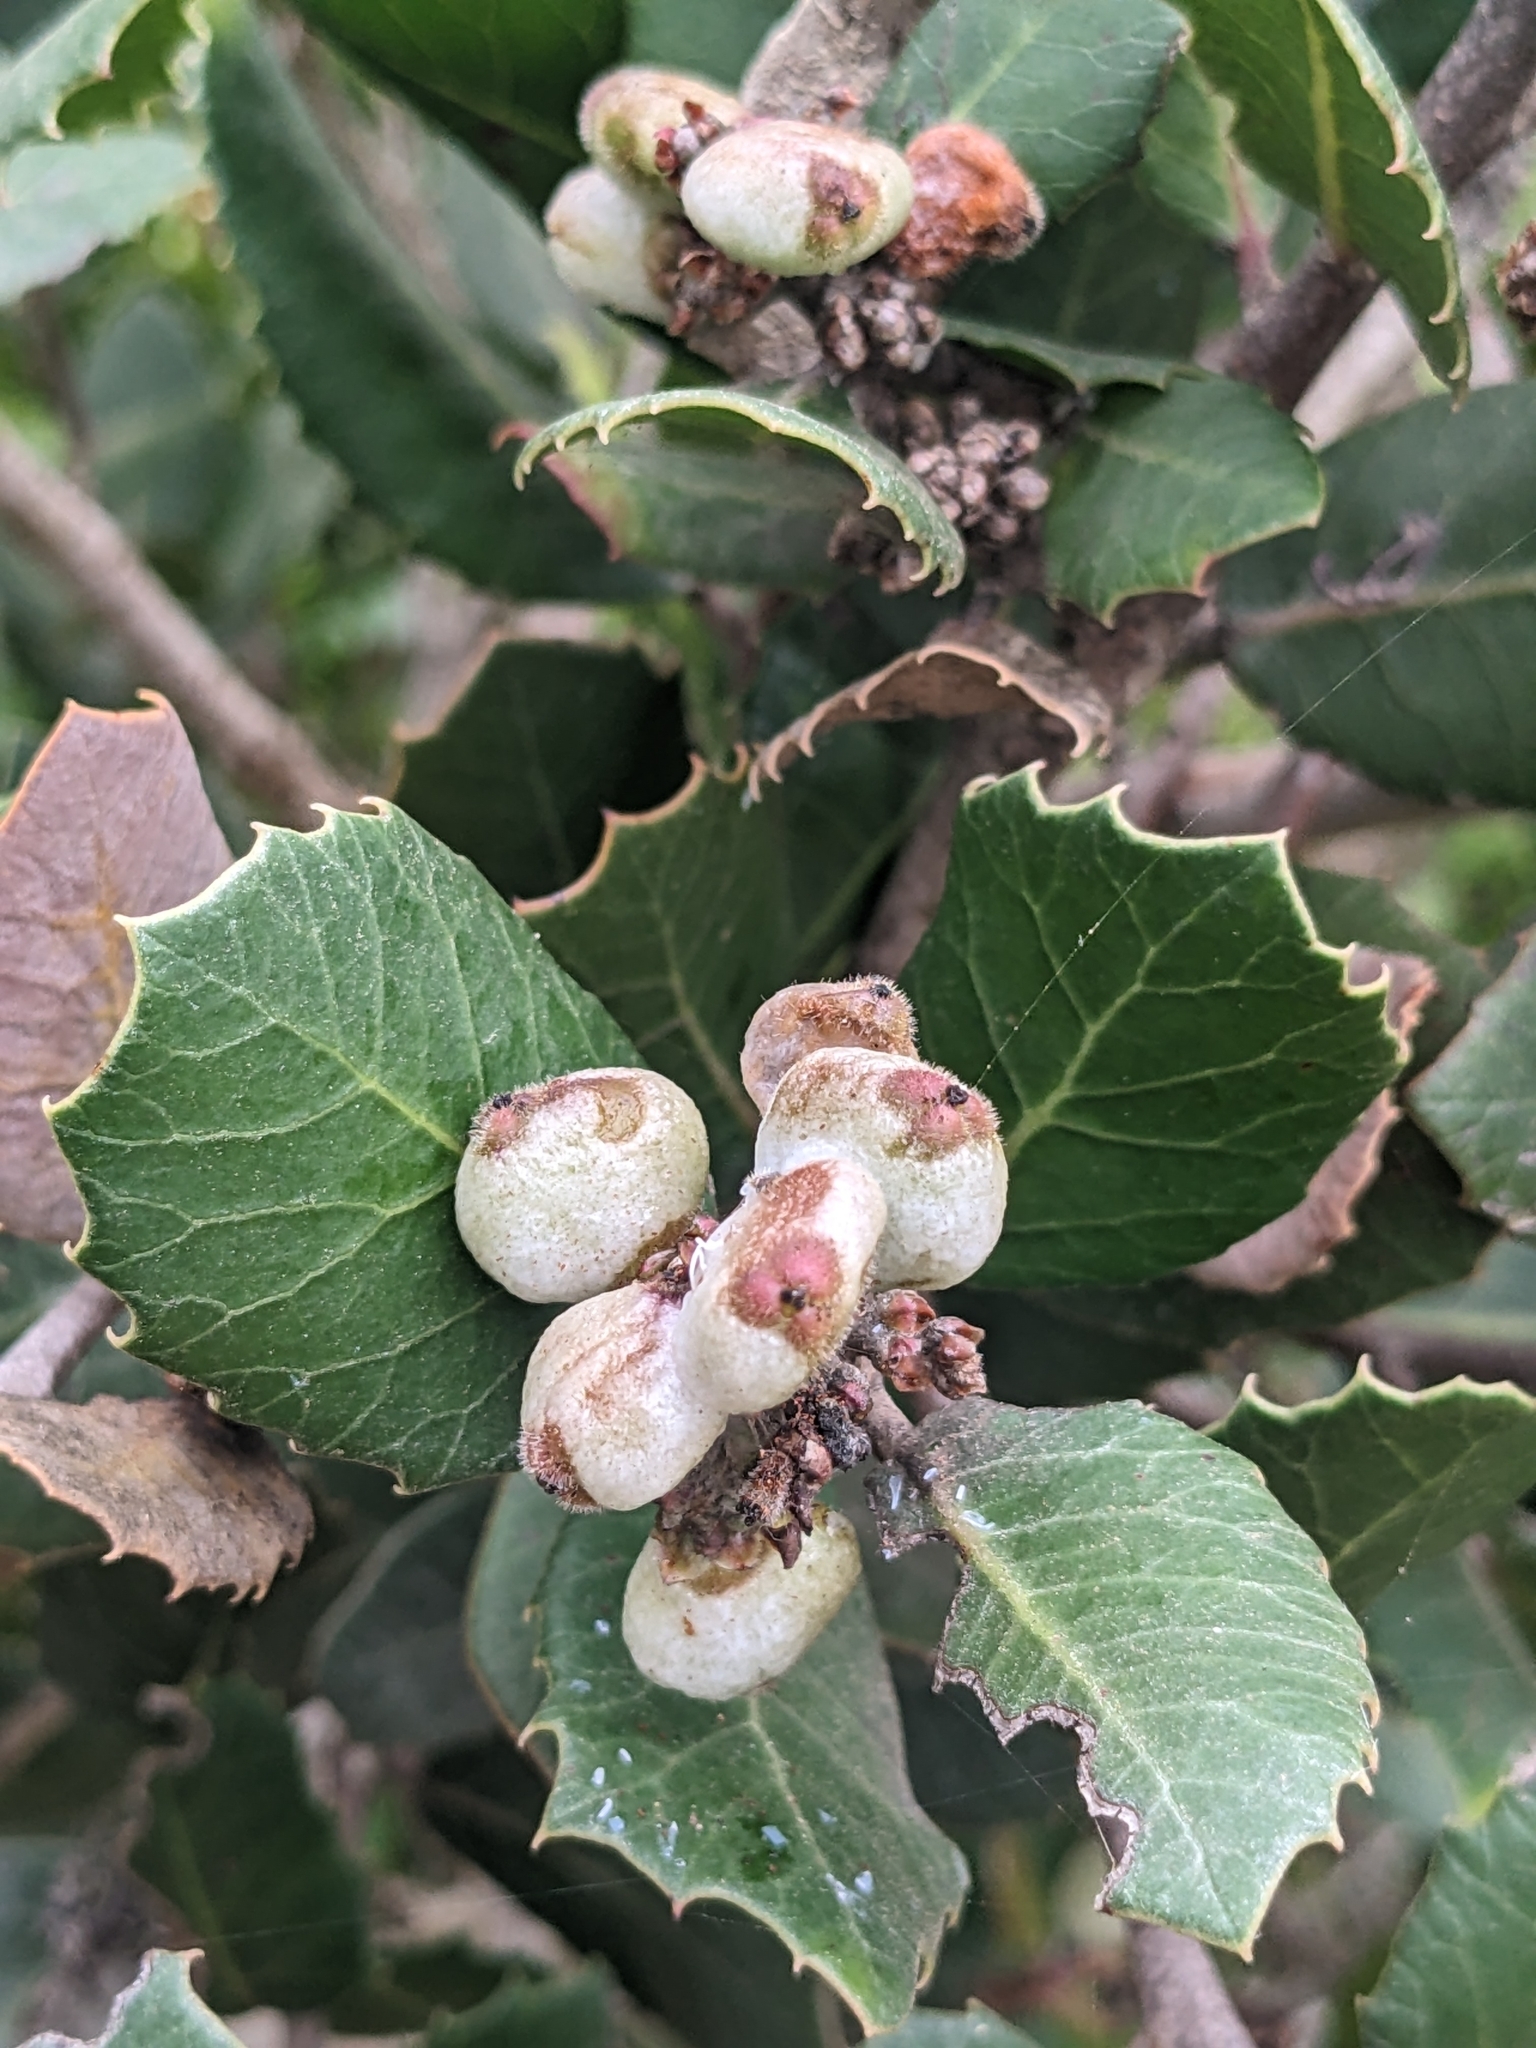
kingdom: Plantae
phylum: Tracheophyta
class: Magnoliopsida
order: Sapindales
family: Anacardiaceae
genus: Rhus
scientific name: Rhus integrifolia
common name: Lemonade sumac
